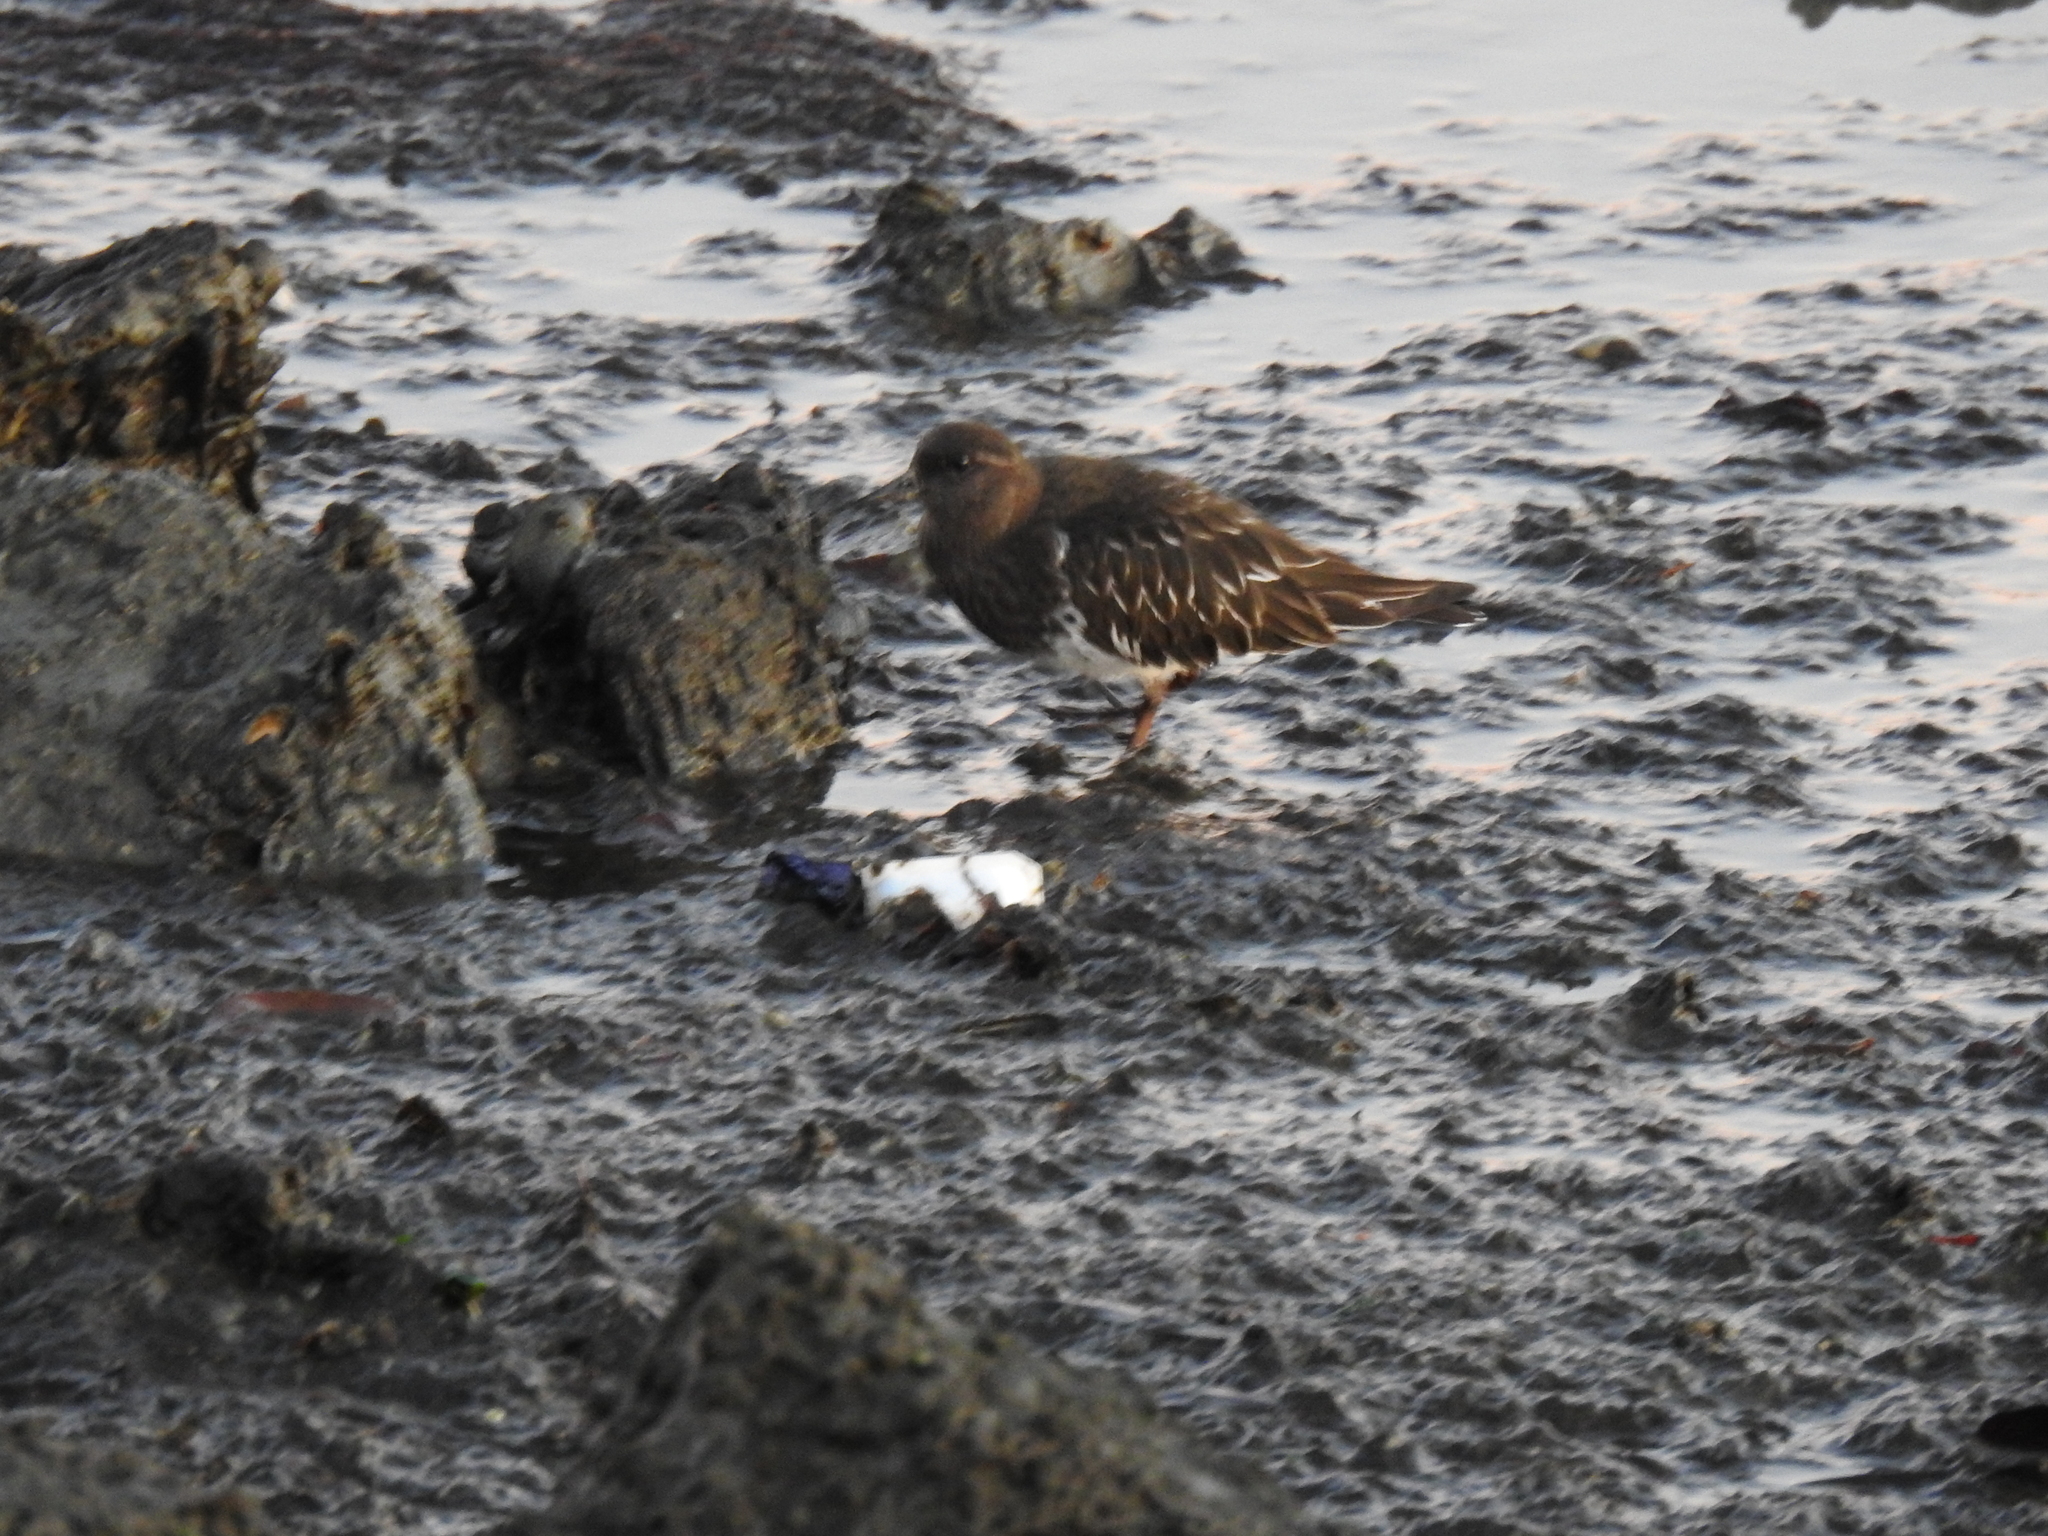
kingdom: Animalia
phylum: Chordata
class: Aves
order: Charadriiformes
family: Scolopacidae
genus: Arenaria
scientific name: Arenaria melanocephala
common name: Black turnstone
